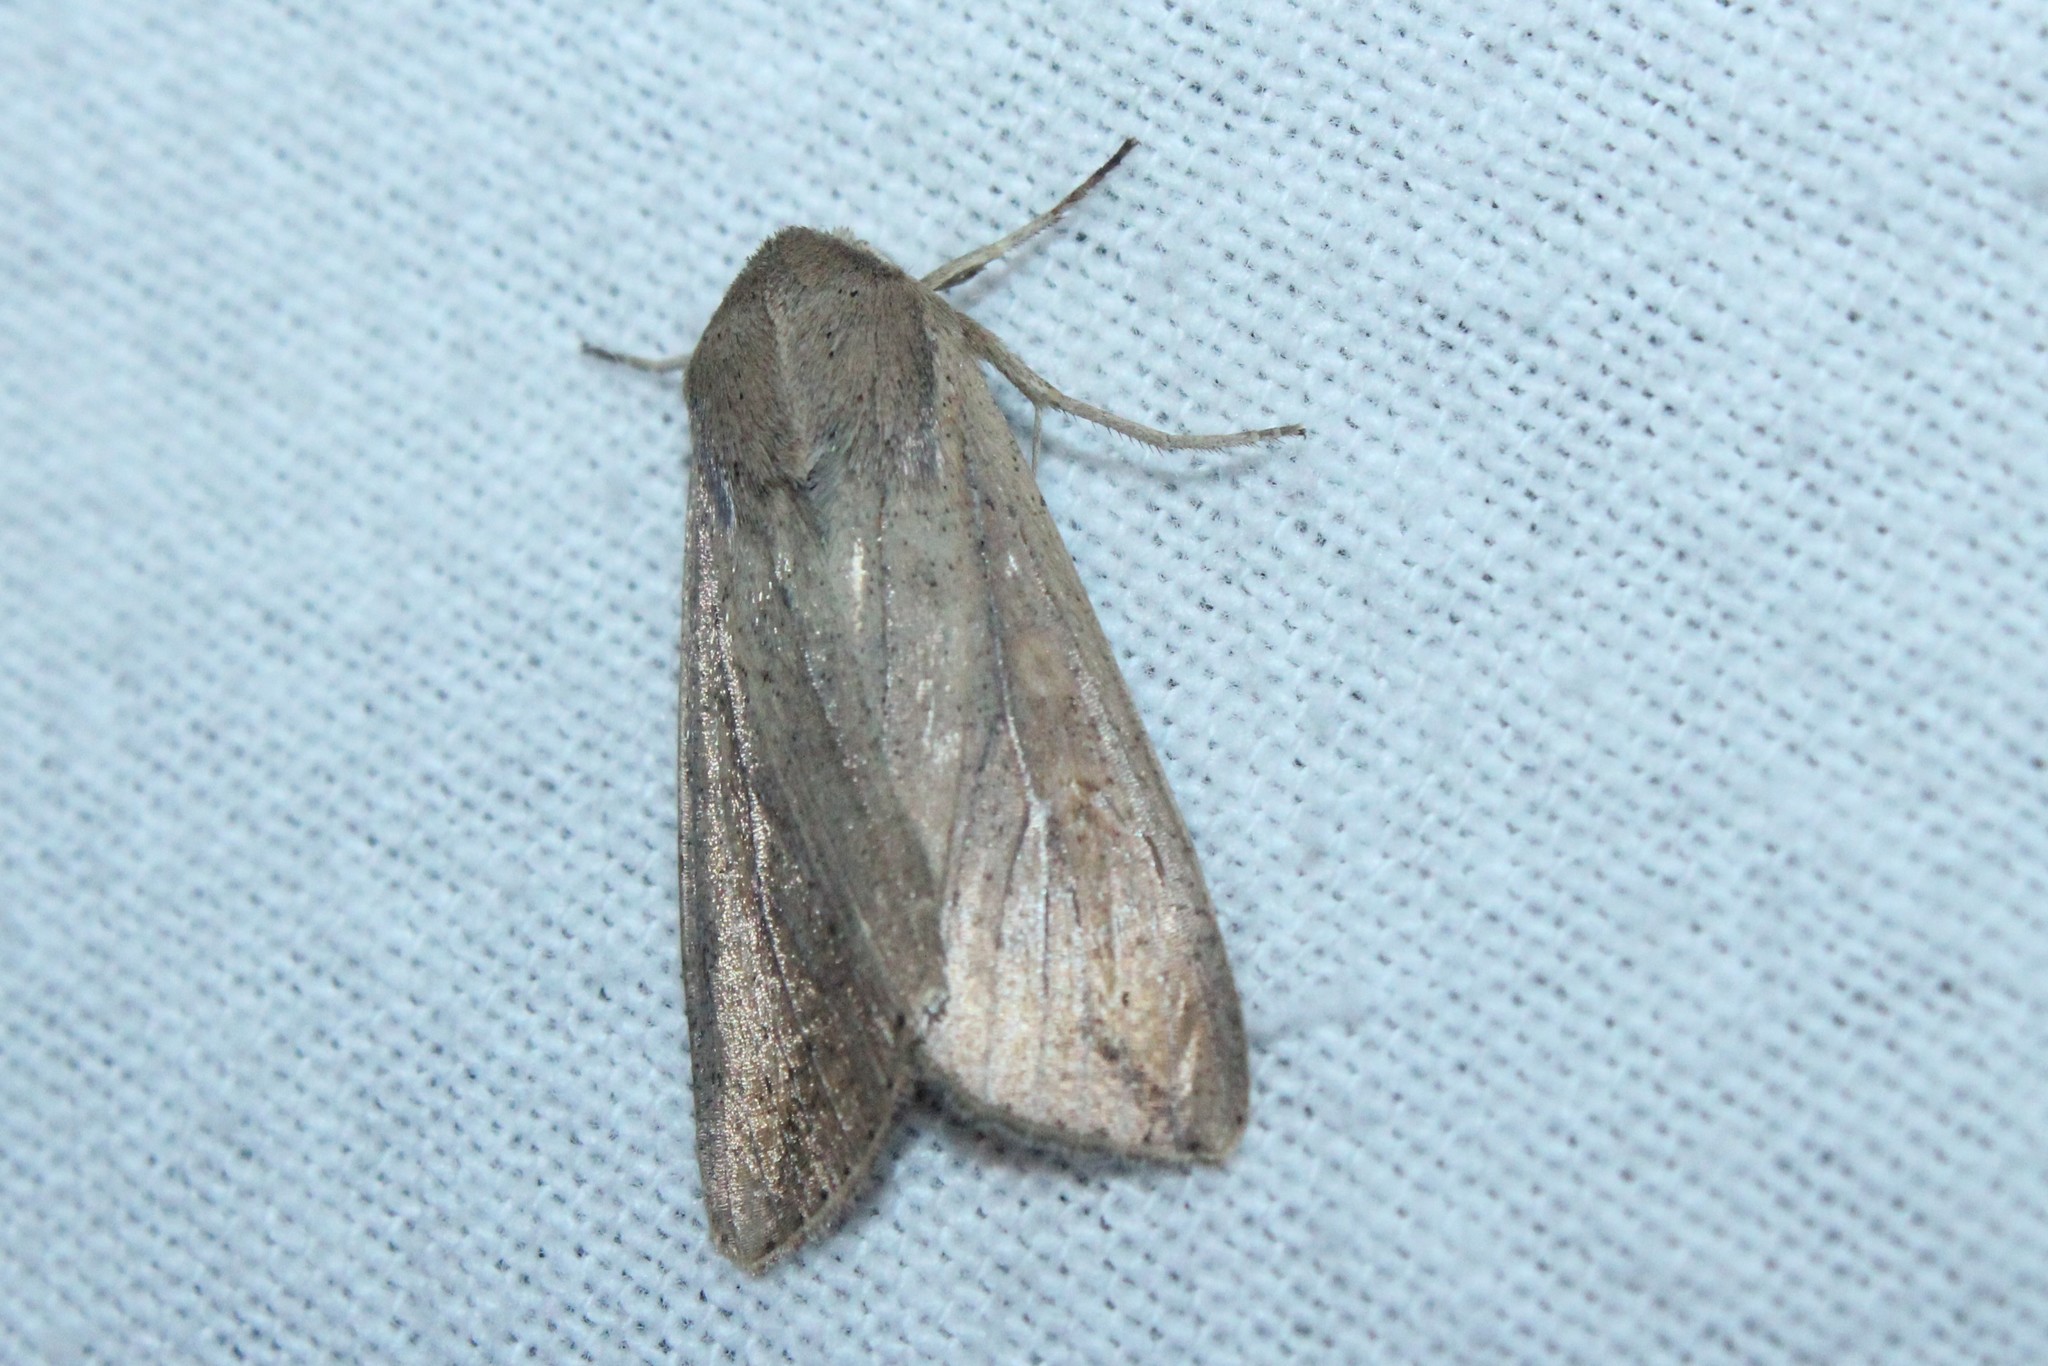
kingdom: Animalia
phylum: Arthropoda
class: Insecta
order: Lepidoptera
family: Noctuidae
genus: Mythimna
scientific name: Mythimna unipuncta
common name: White-speck
